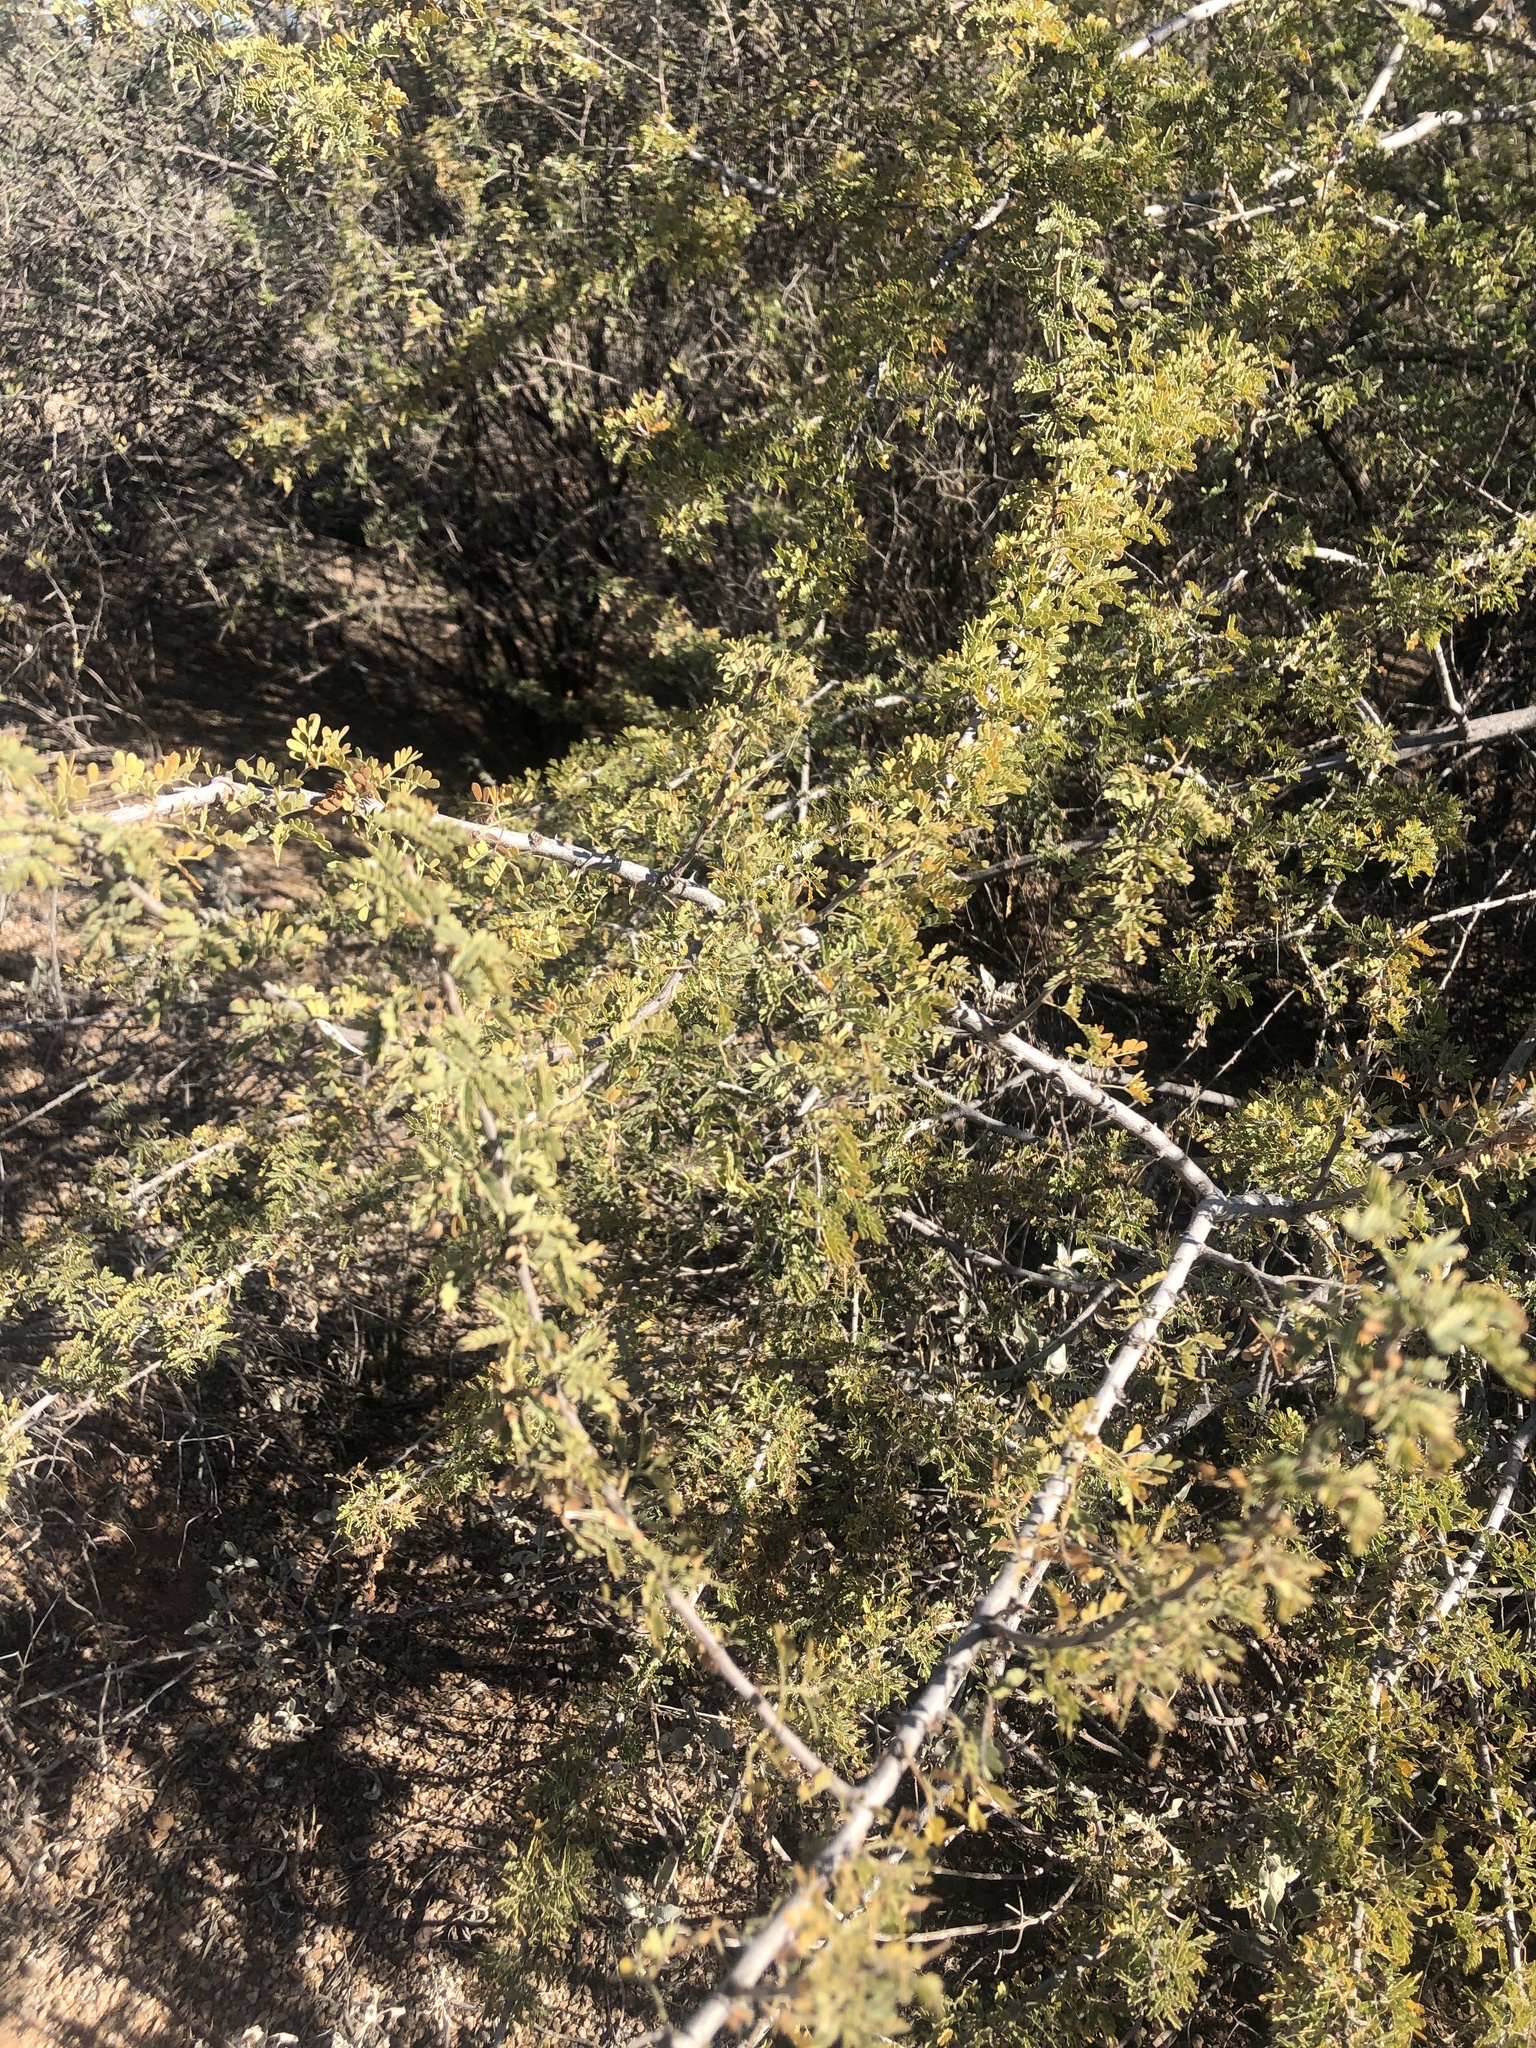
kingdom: Plantae
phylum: Tracheophyta
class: Magnoliopsida
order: Fabales
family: Fabaceae
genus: Senegalia
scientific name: Senegalia greggii
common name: Texas-mimosa
